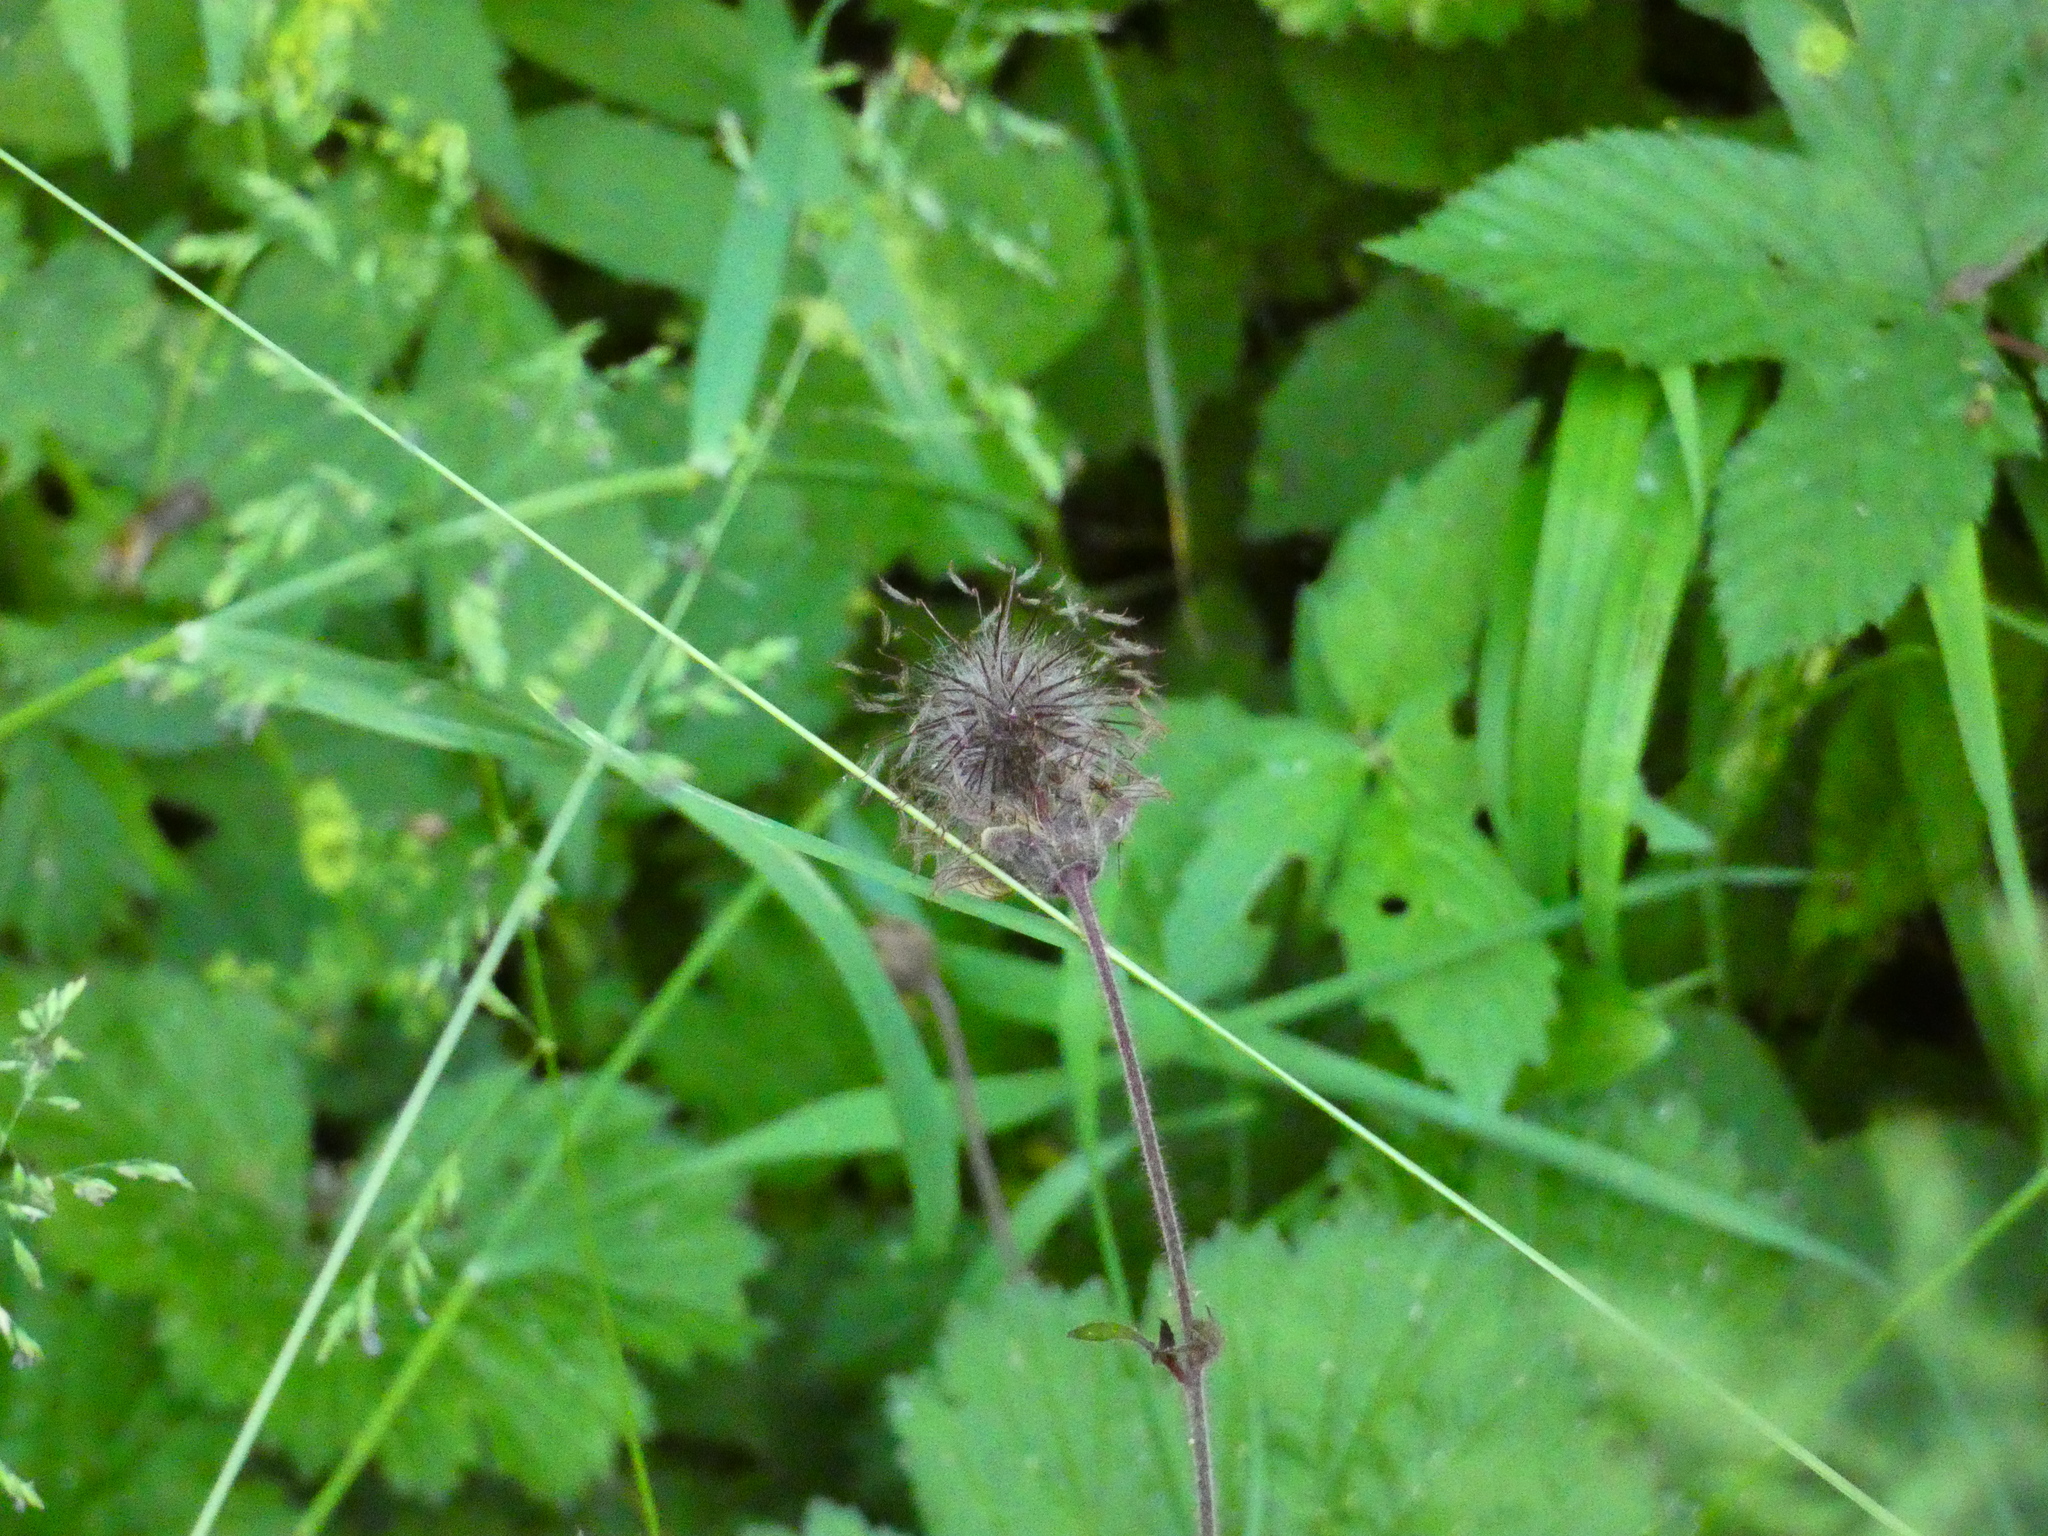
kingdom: Plantae
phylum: Tracheophyta
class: Magnoliopsida
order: Rosales
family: Rosaceae
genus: Geum
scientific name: Geum rivale
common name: Water avens
